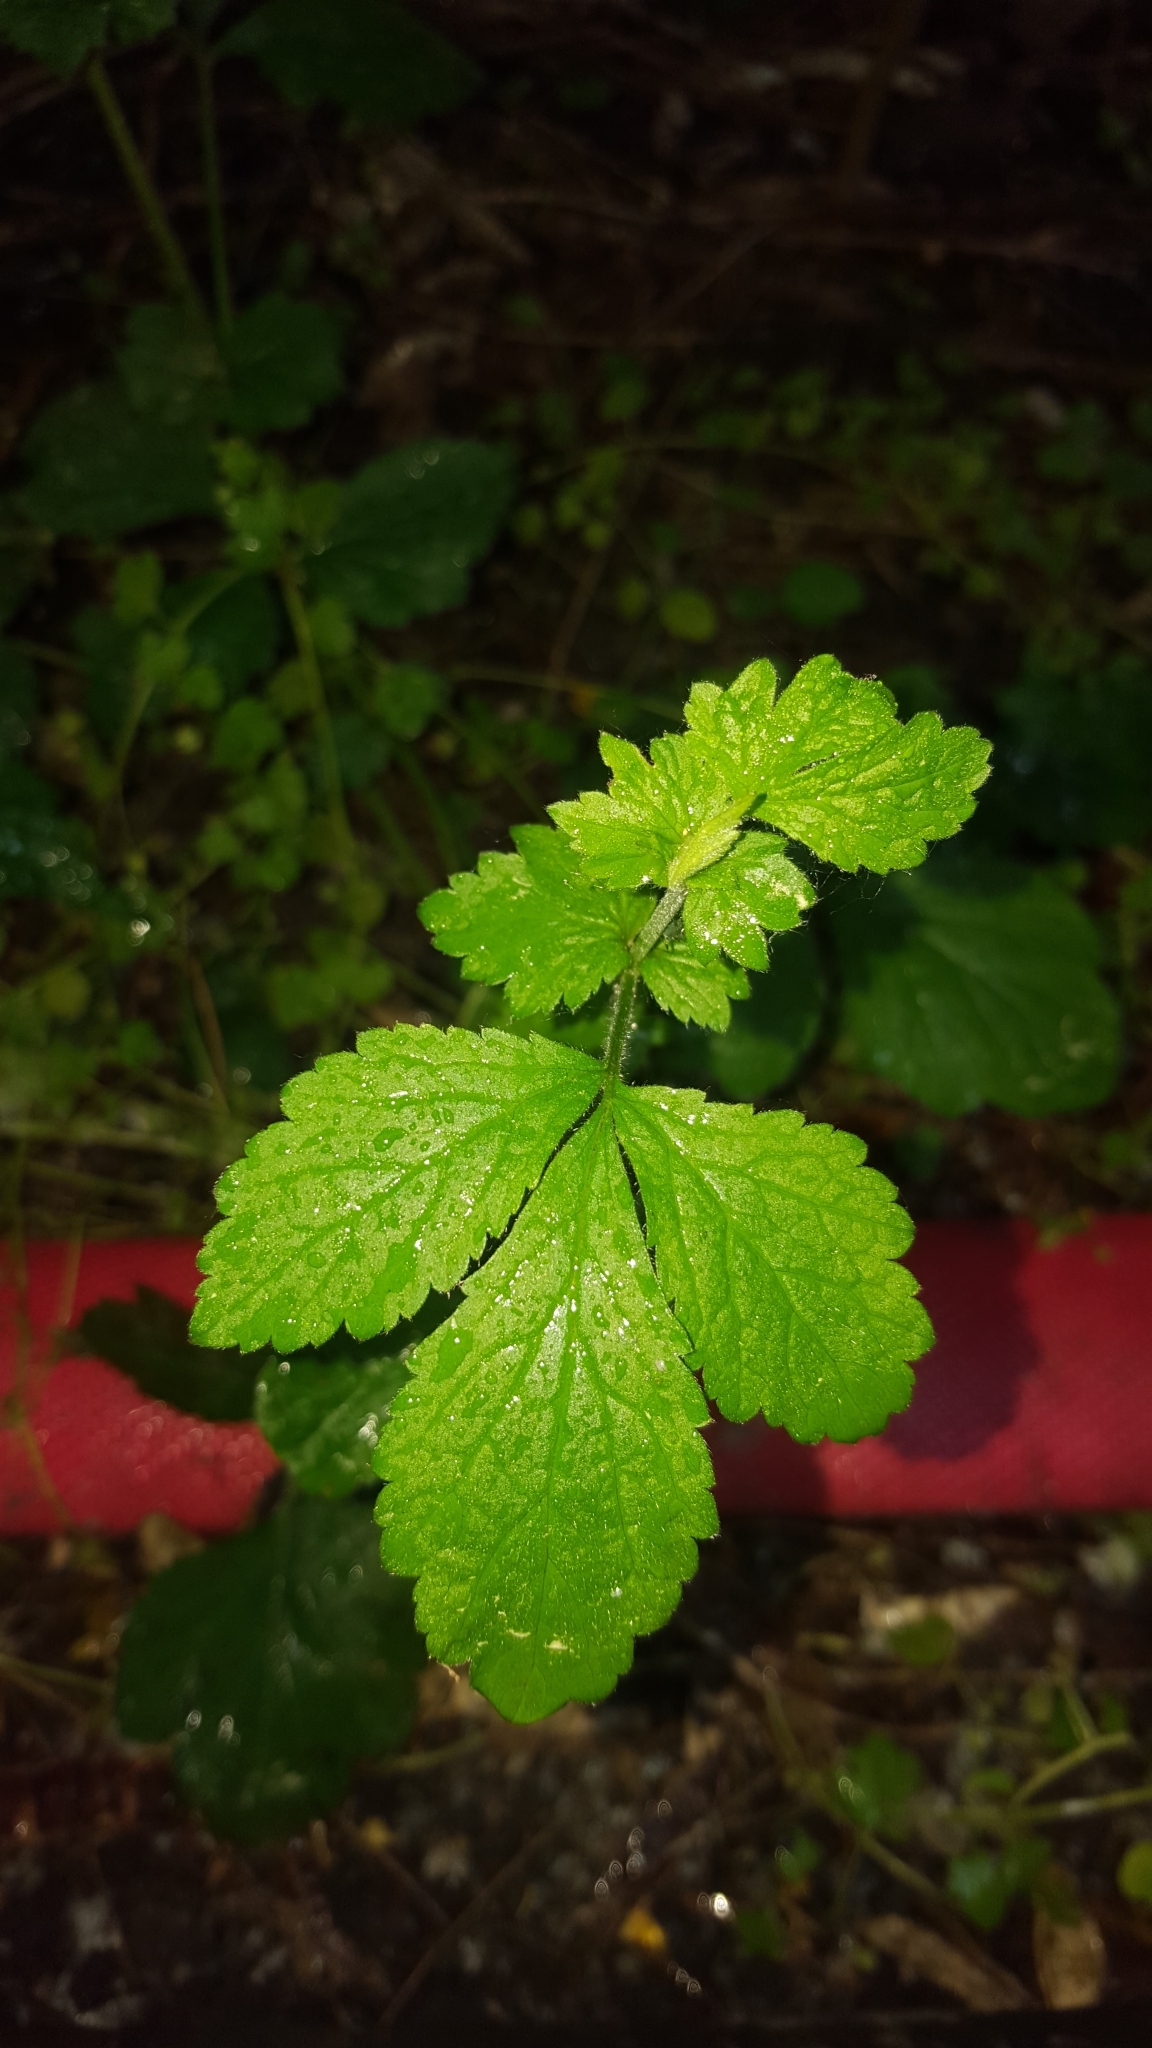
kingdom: Plantae
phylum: Tracheophyta
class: Magnoliopsida
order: Rosales
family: Rosaceae
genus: Geum
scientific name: Geum urbanum
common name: Wood avens
